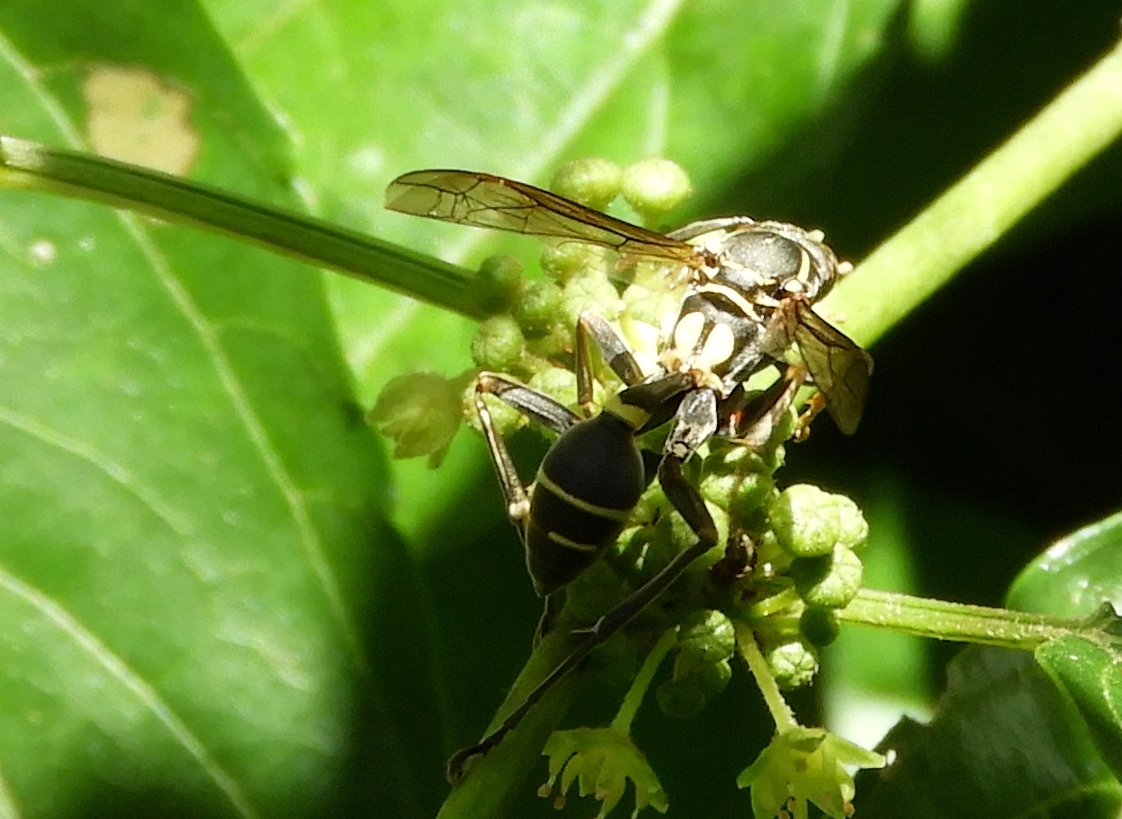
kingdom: Animalia
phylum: Arthropoda
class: Insecta
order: Hymenoptera
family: Vespidae
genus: Myrapetra
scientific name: Myrapetra
